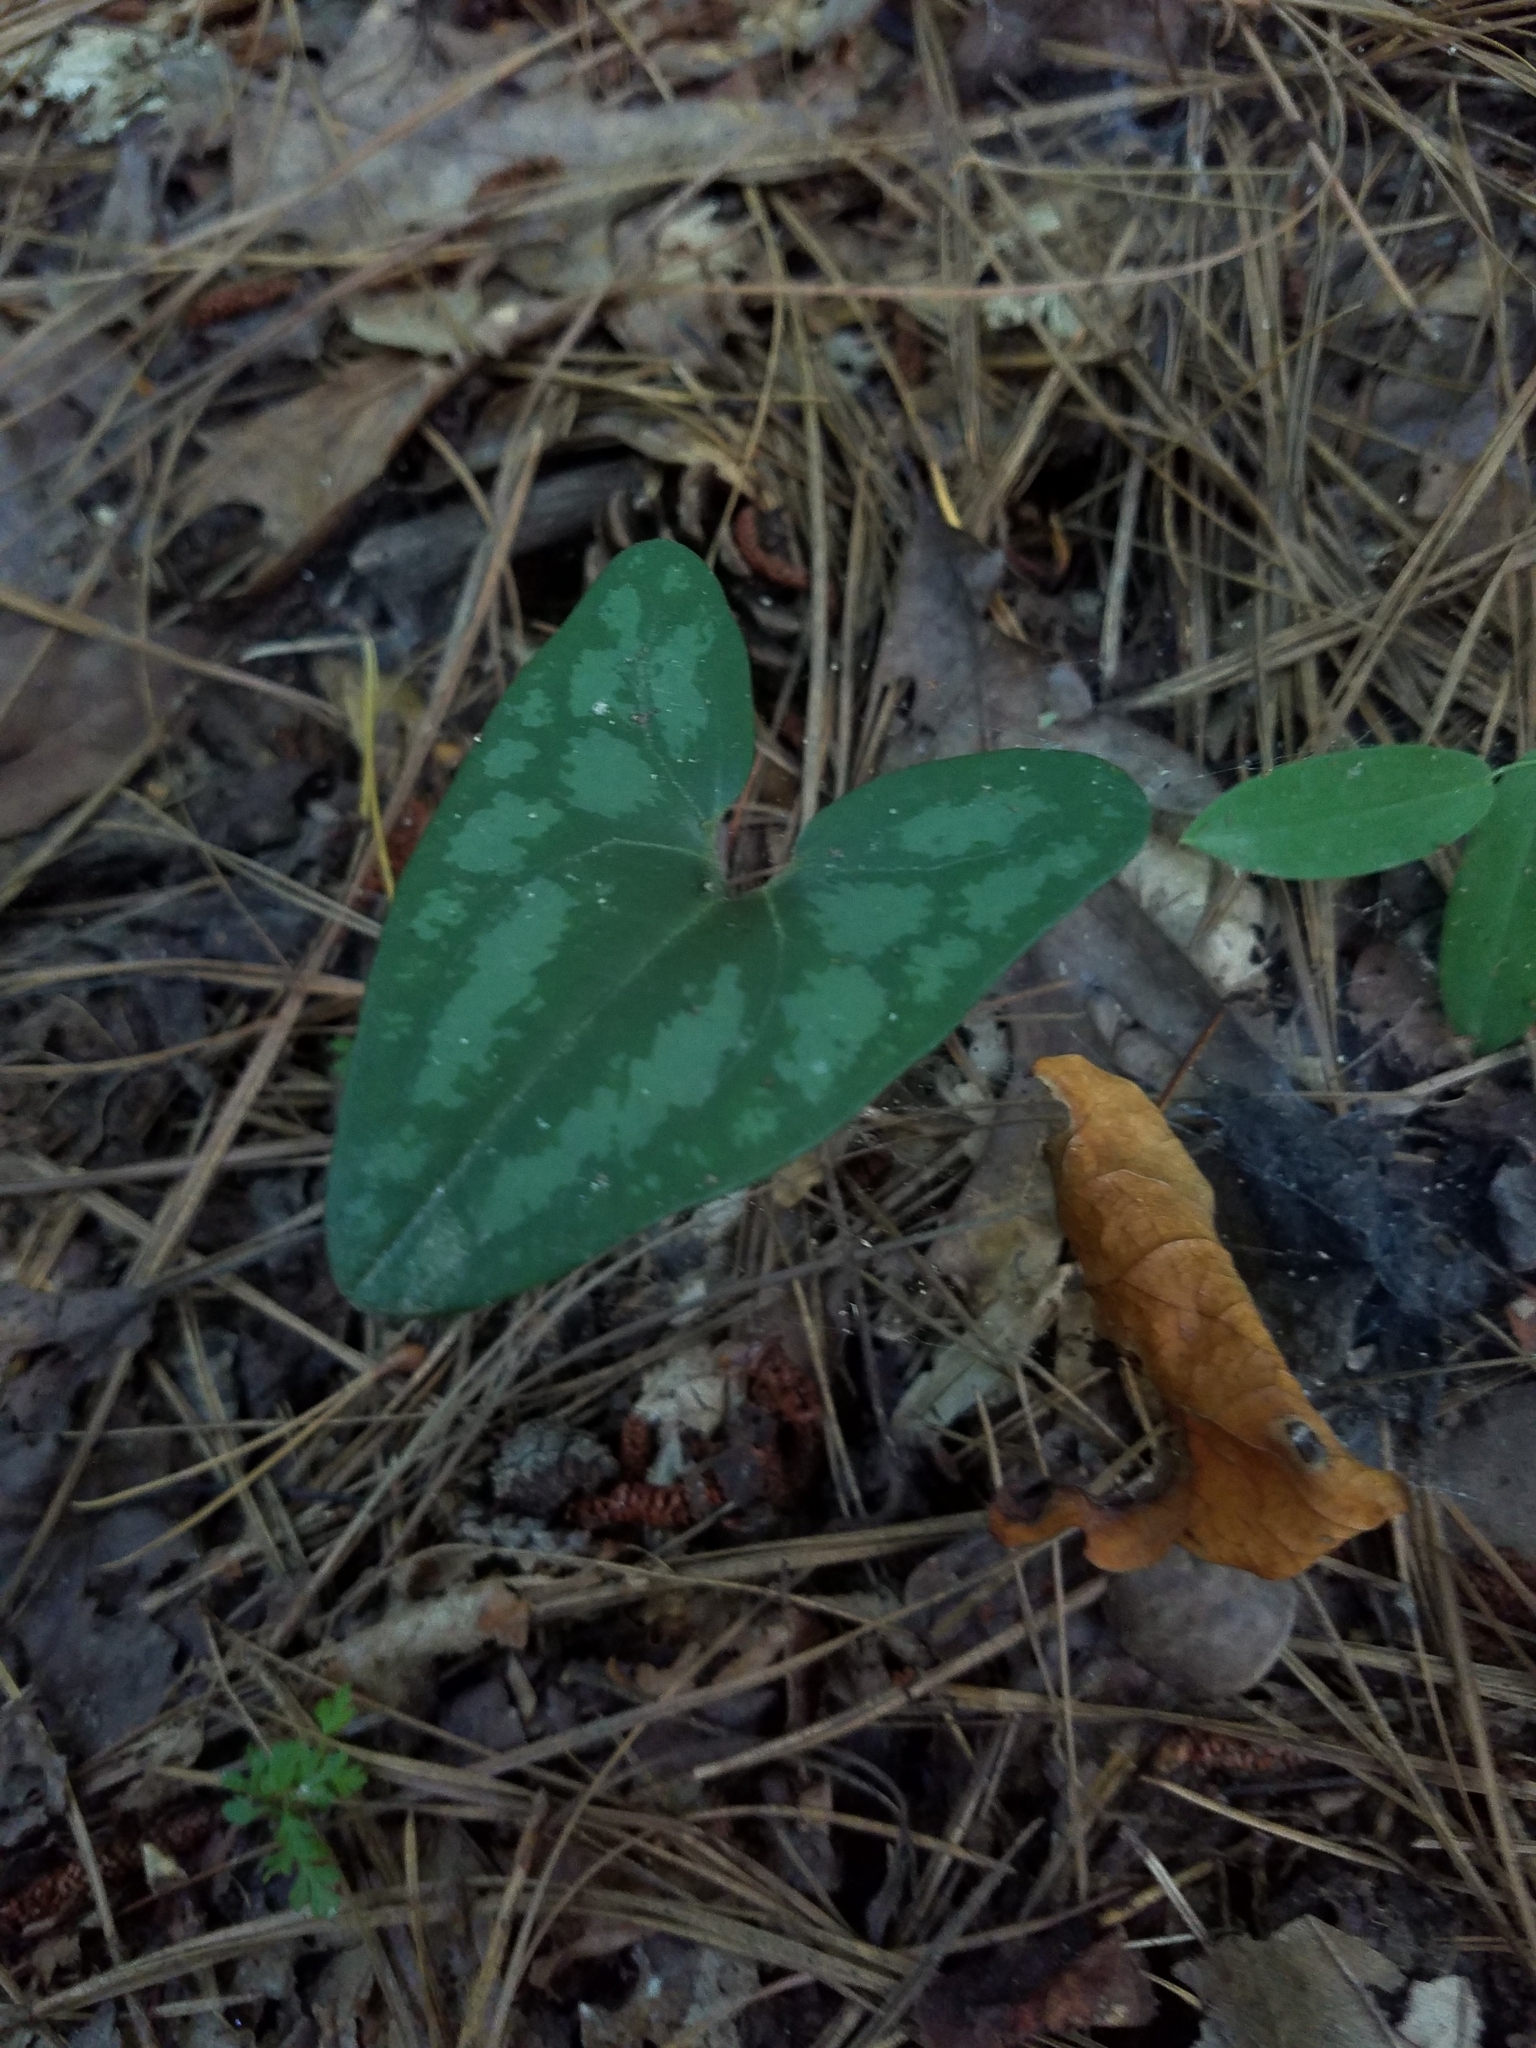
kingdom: Plantae
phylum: Tracheophyta
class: Magnoliopsida
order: Piperales
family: Aristolochiaceae
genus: Hexastylis
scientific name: Hexastylis arifolia
